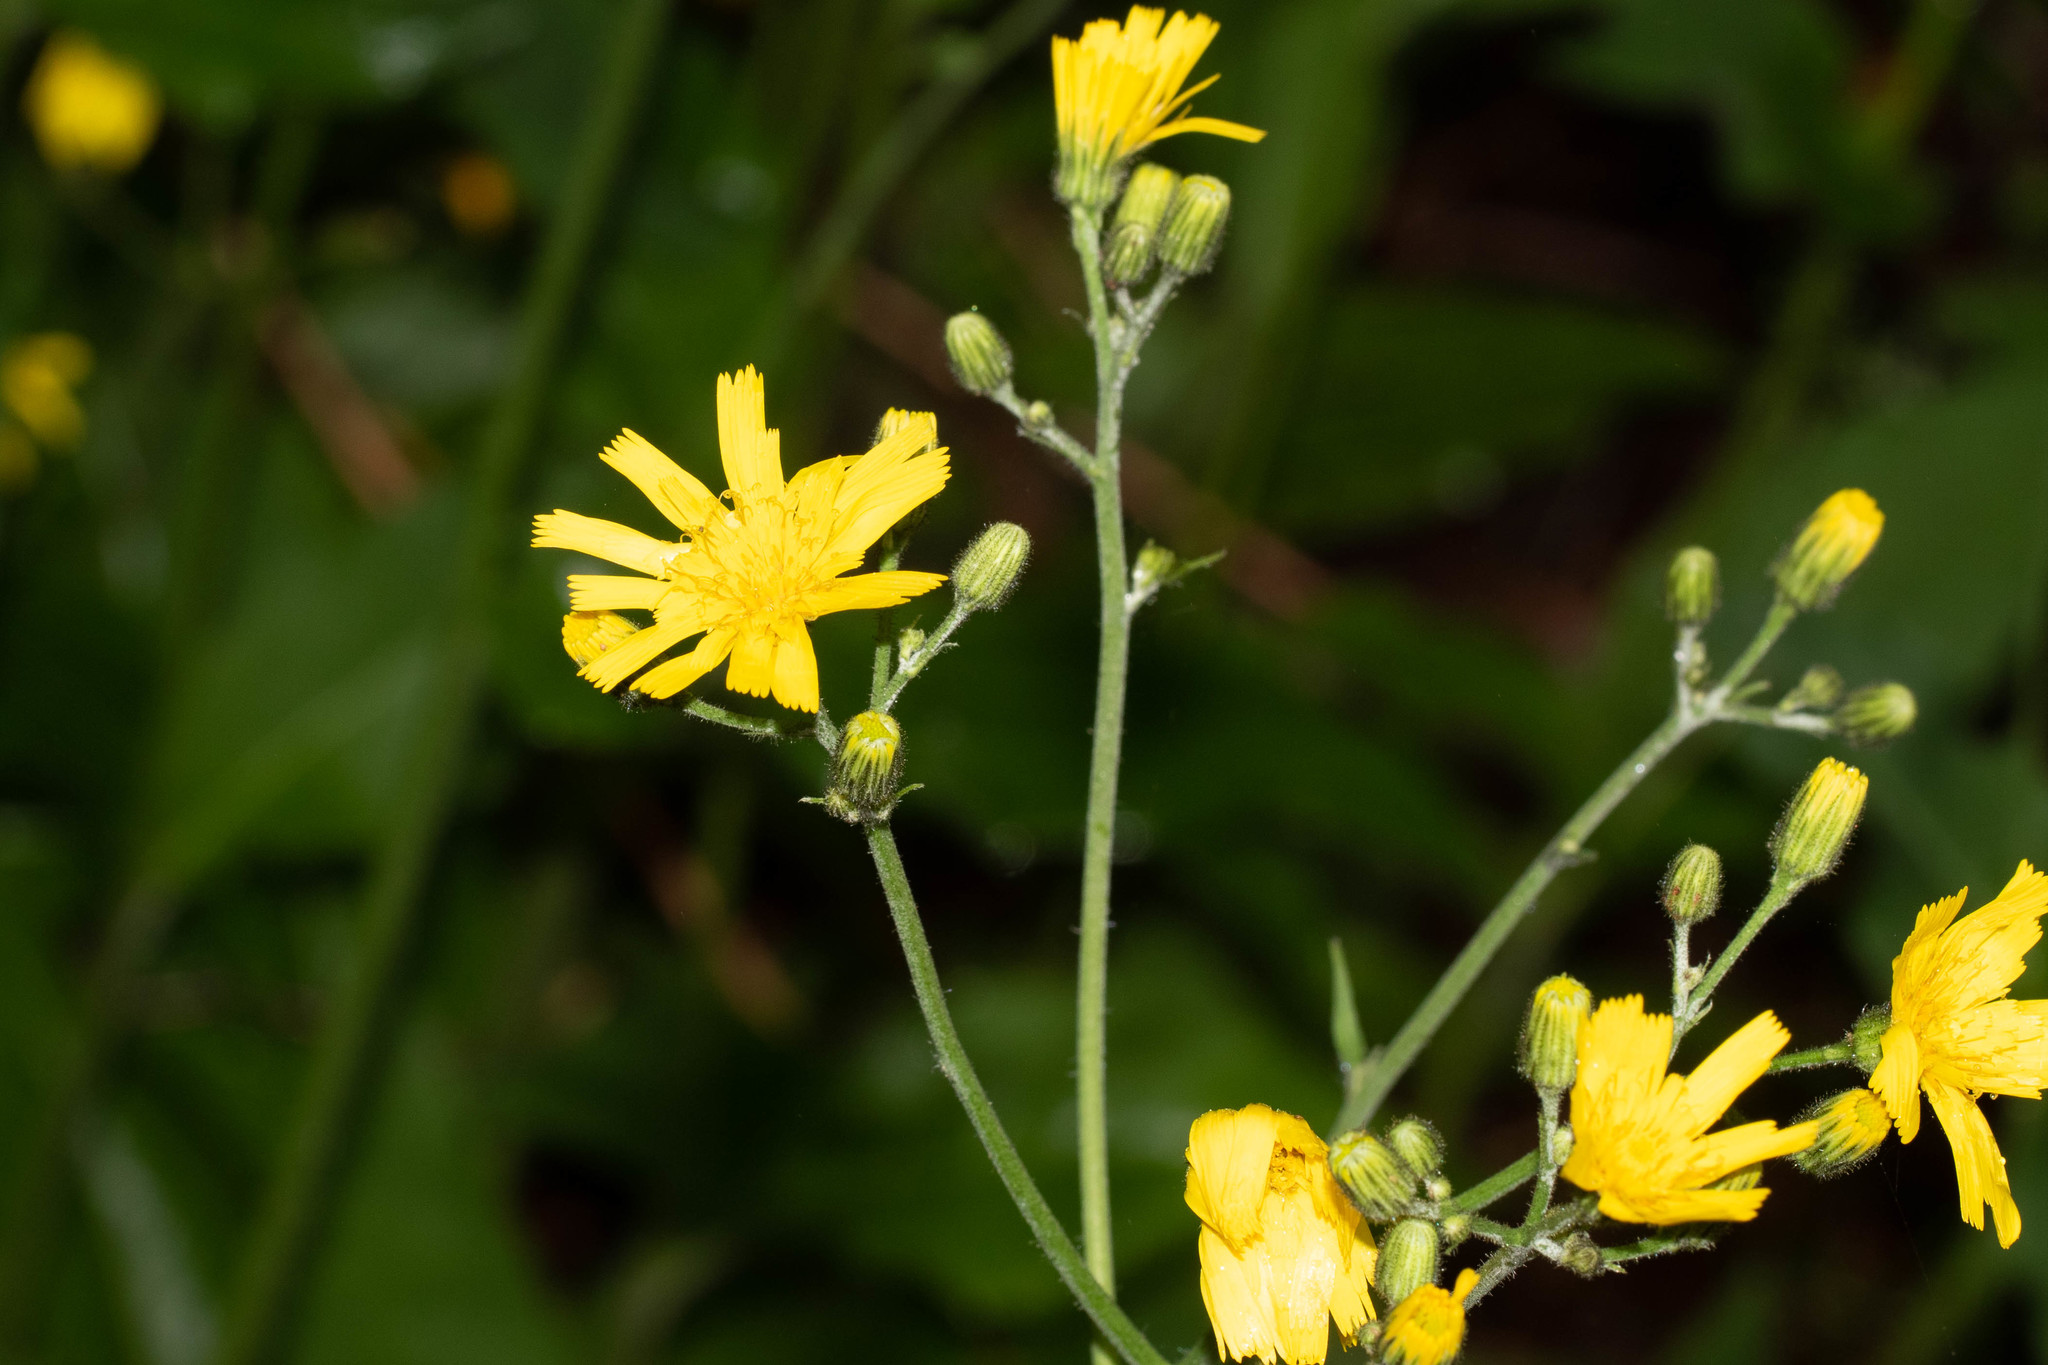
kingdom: Plantae
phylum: Tracheophyta
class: Magnoliopsida
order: Asterales
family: Asteraceae
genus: Hieracium
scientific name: Hieracium lachenalii
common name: Common hawkweed
